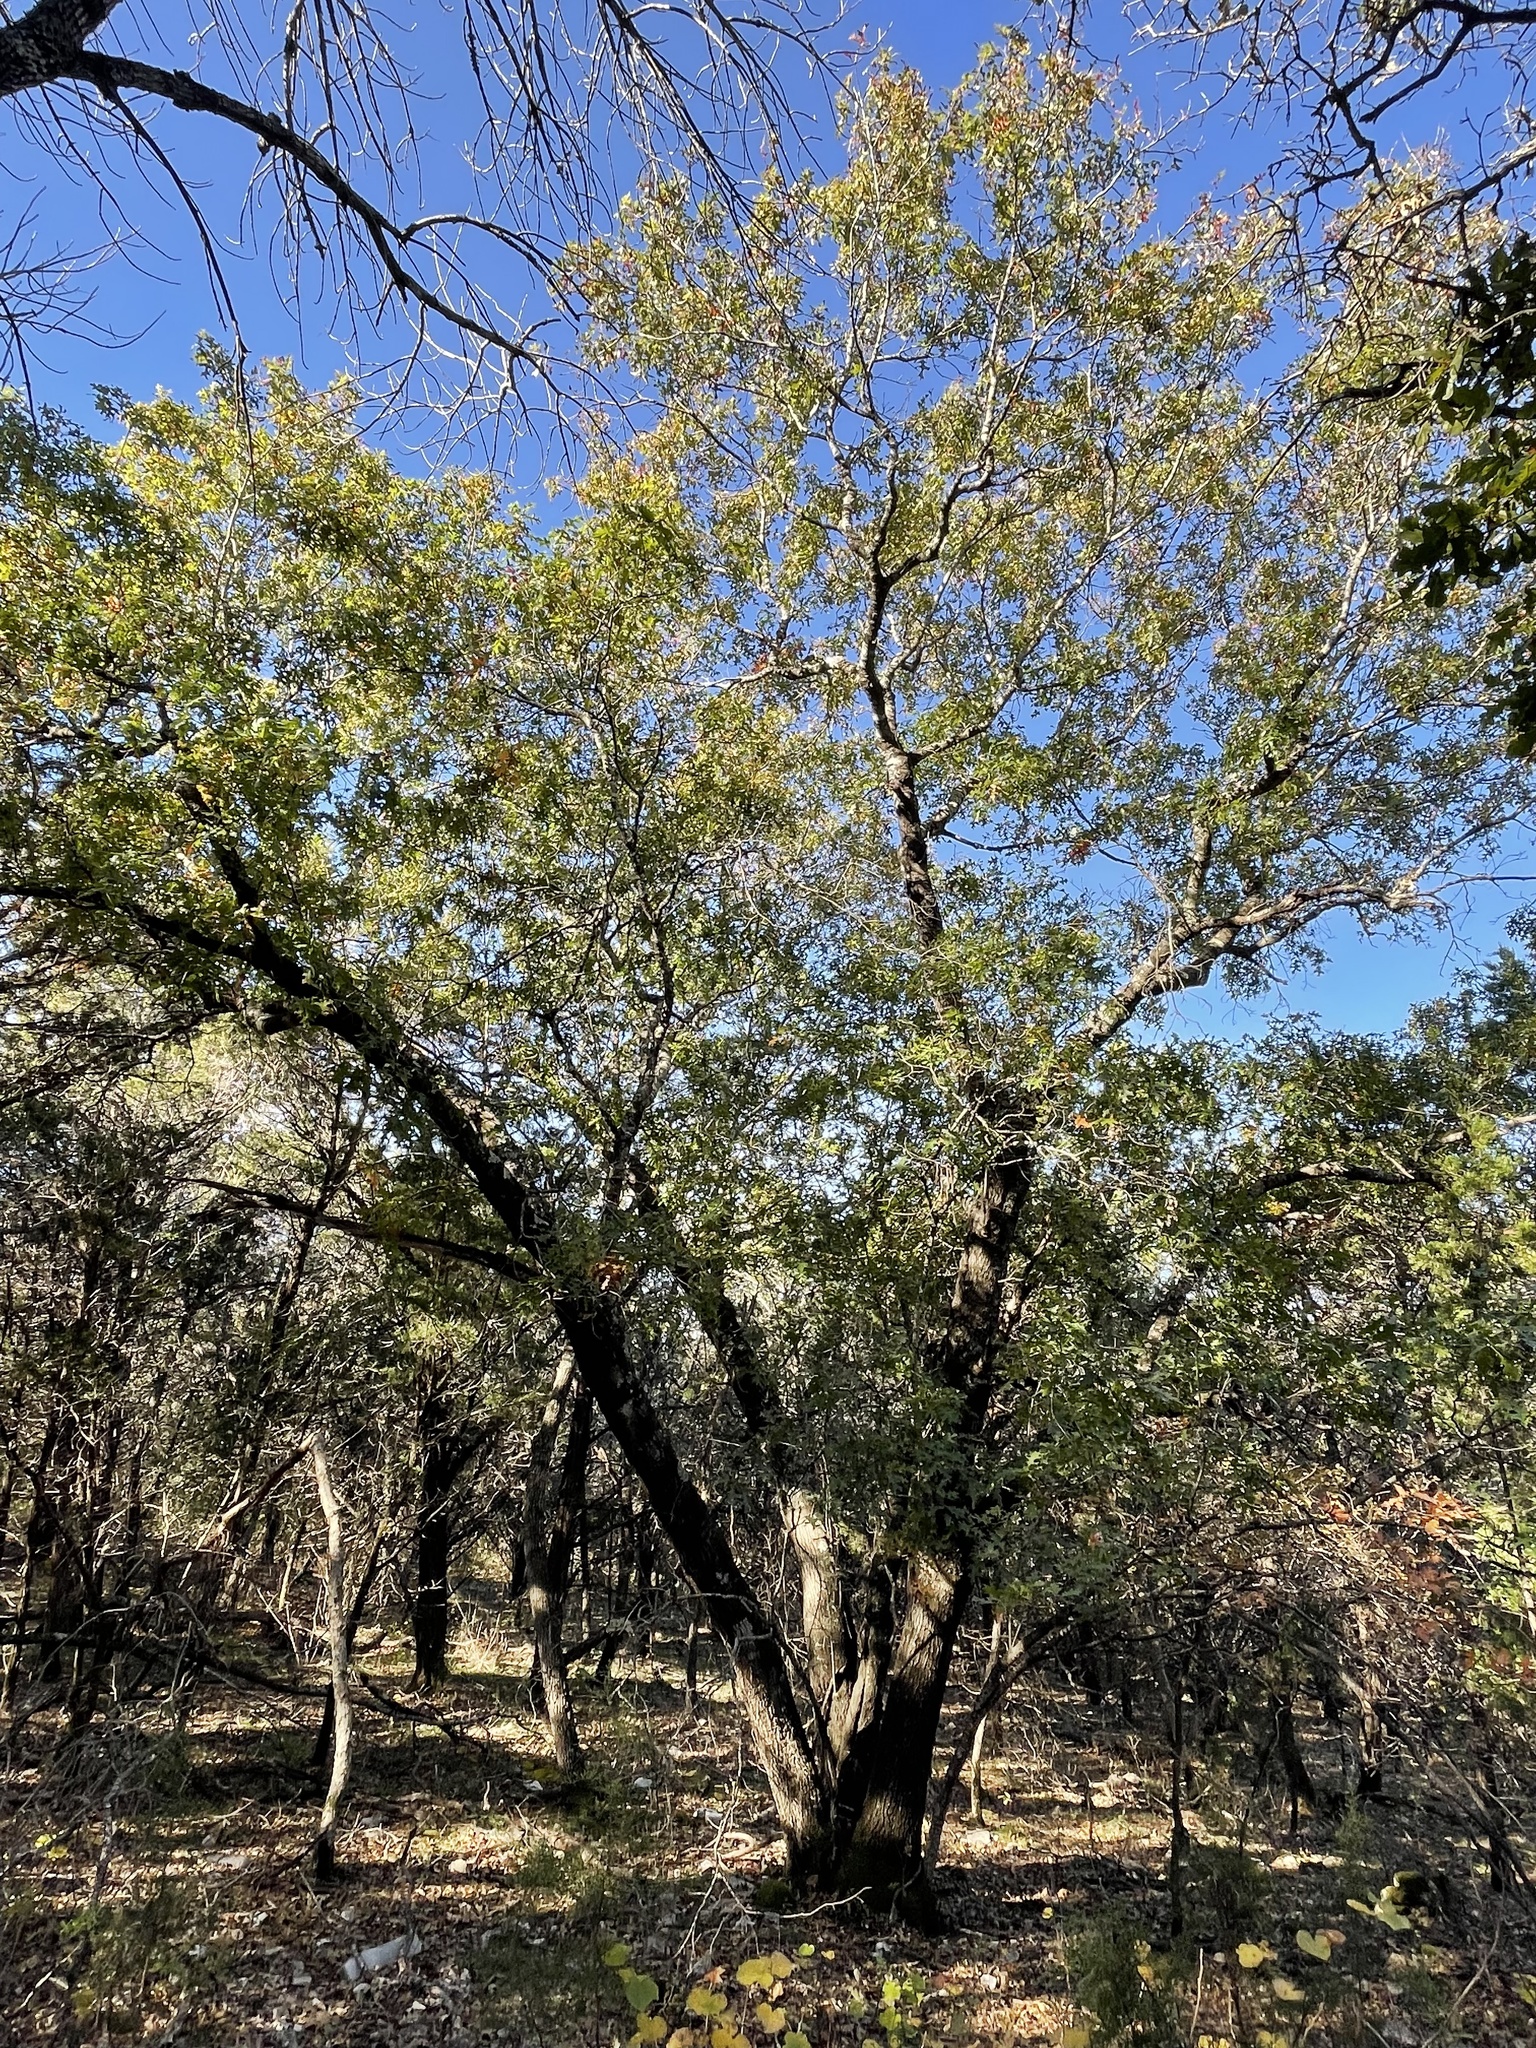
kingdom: Plantae
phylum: Tracheophyta
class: Magnoliopsida
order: Fagales
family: Fagaceae
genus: Quercus
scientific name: Quercus buckleyi
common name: Buckley oak
